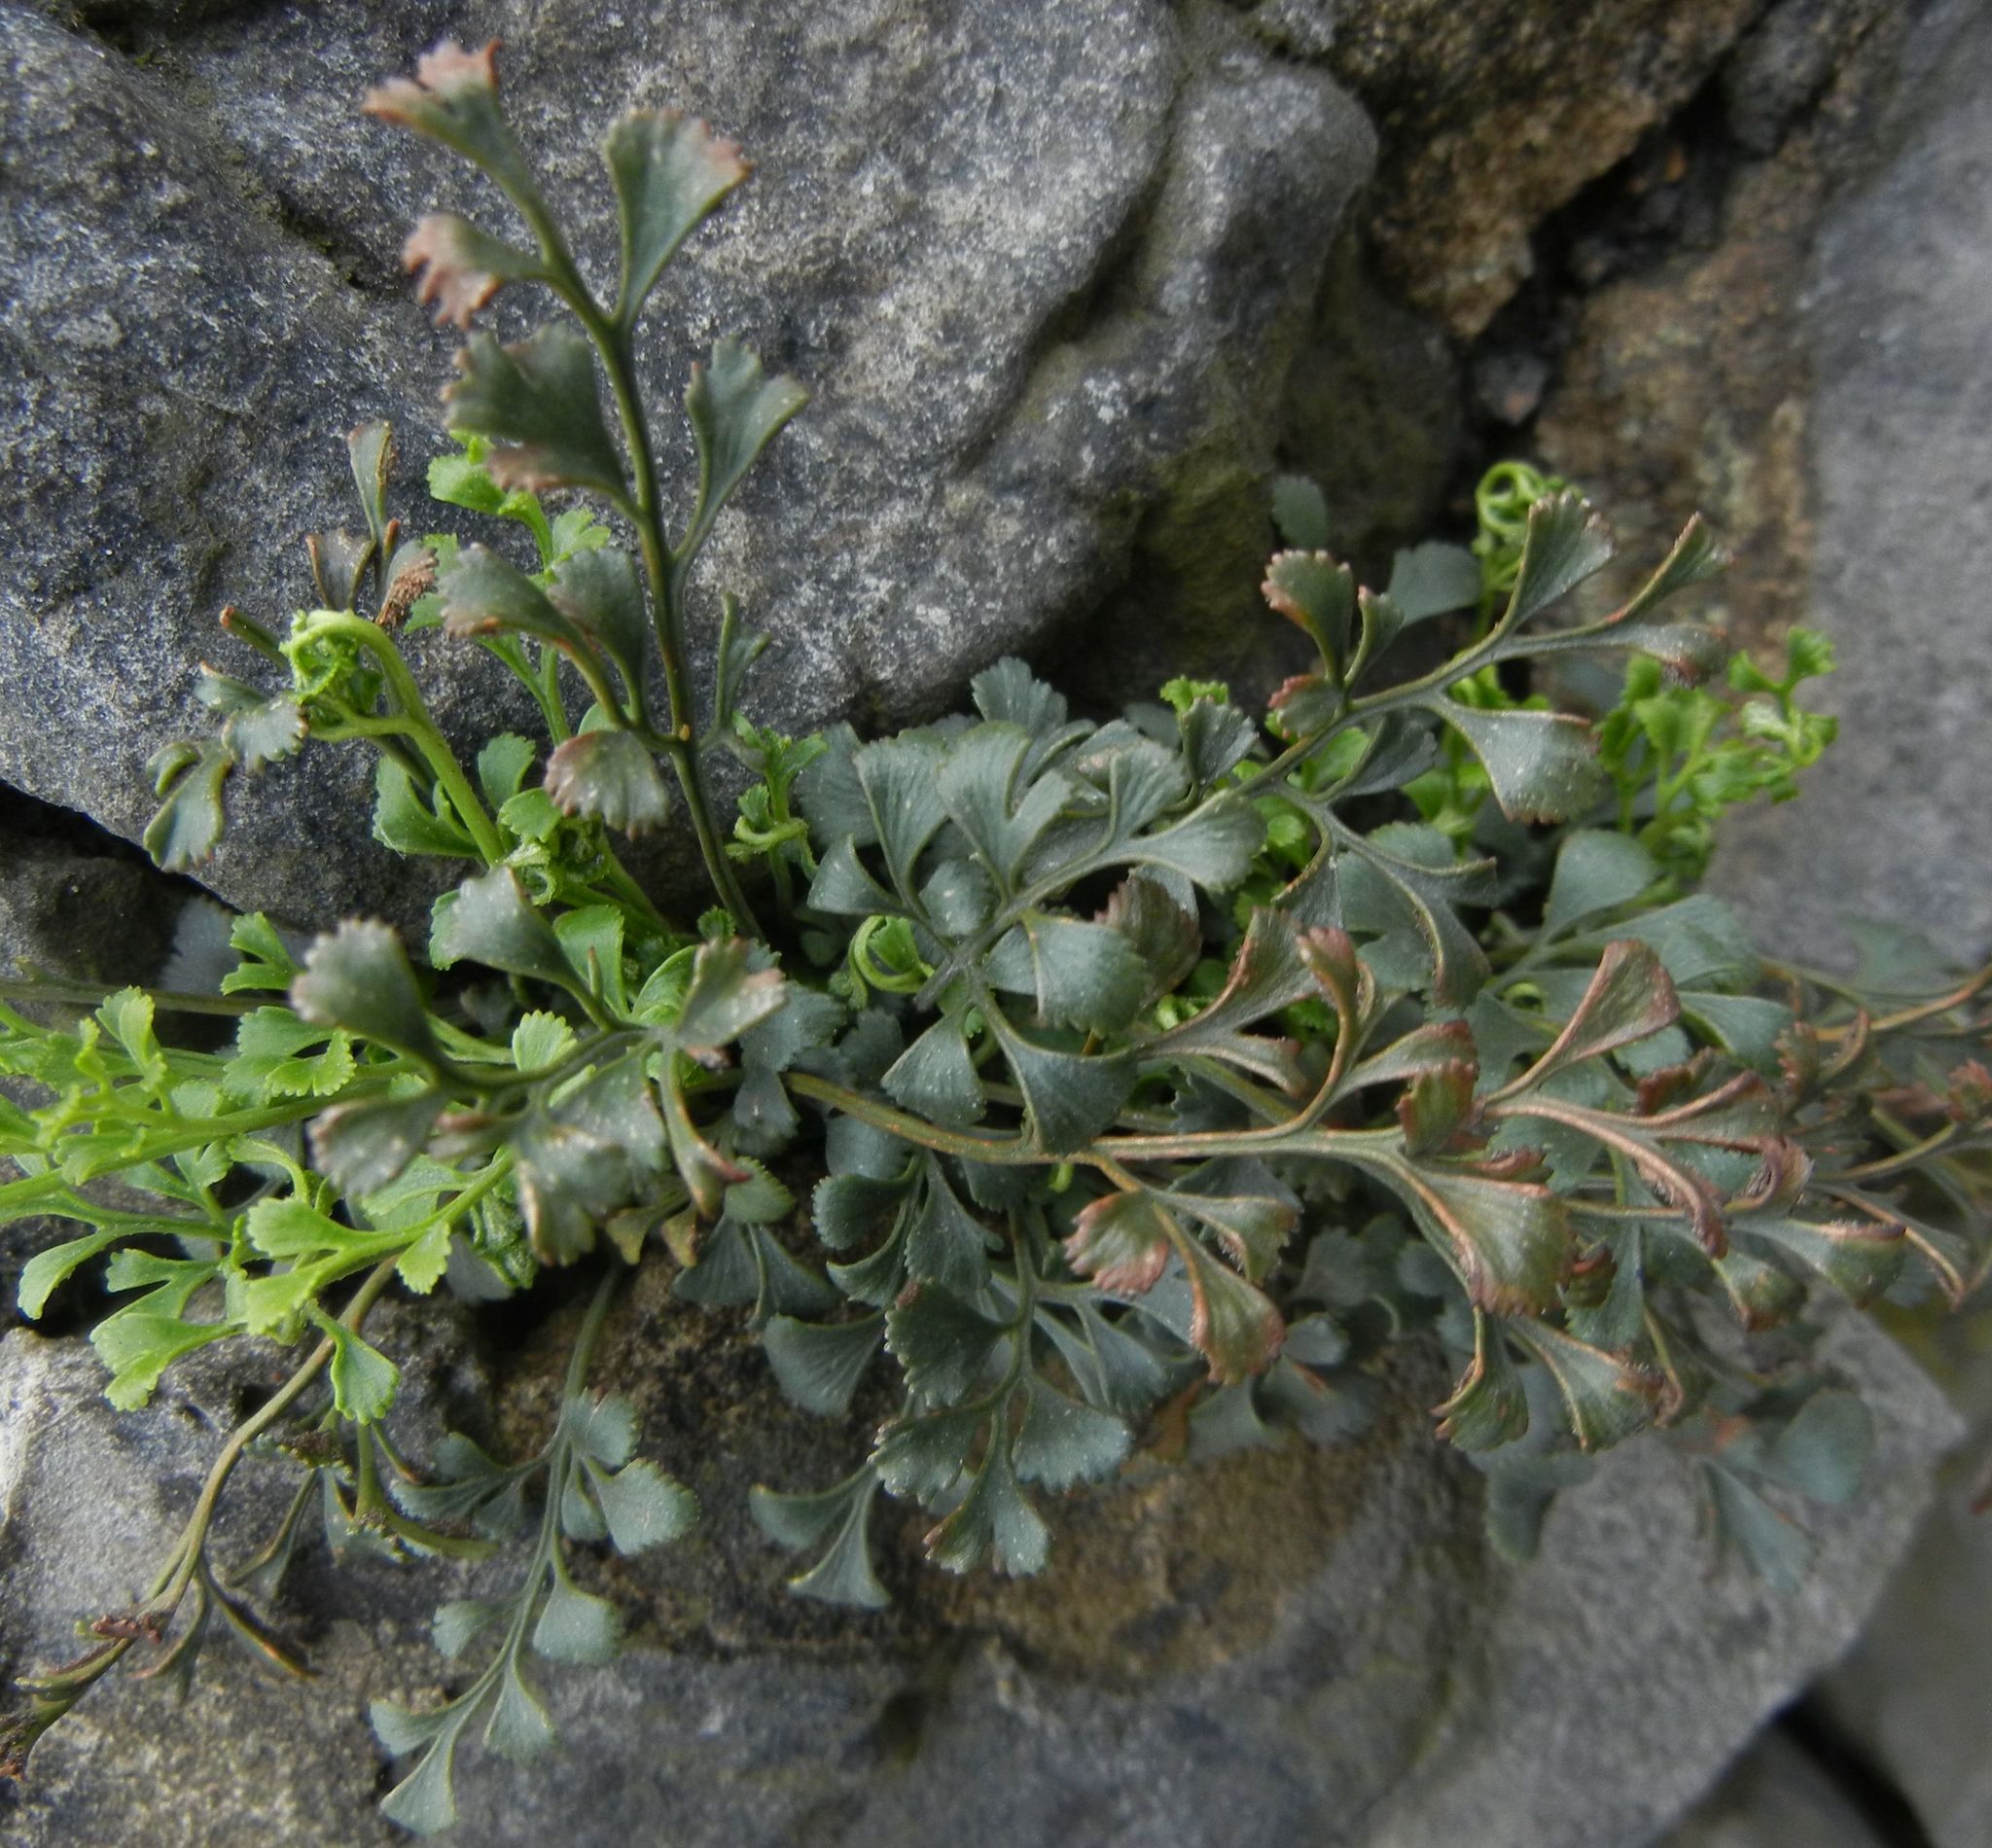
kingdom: Plantae
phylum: Tracheophyta
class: Polypodiopsida
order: Polypodiales
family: Aspleniaceae
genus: Asplenium
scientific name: Asplenium ruta-muraria
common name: Wall-rue
